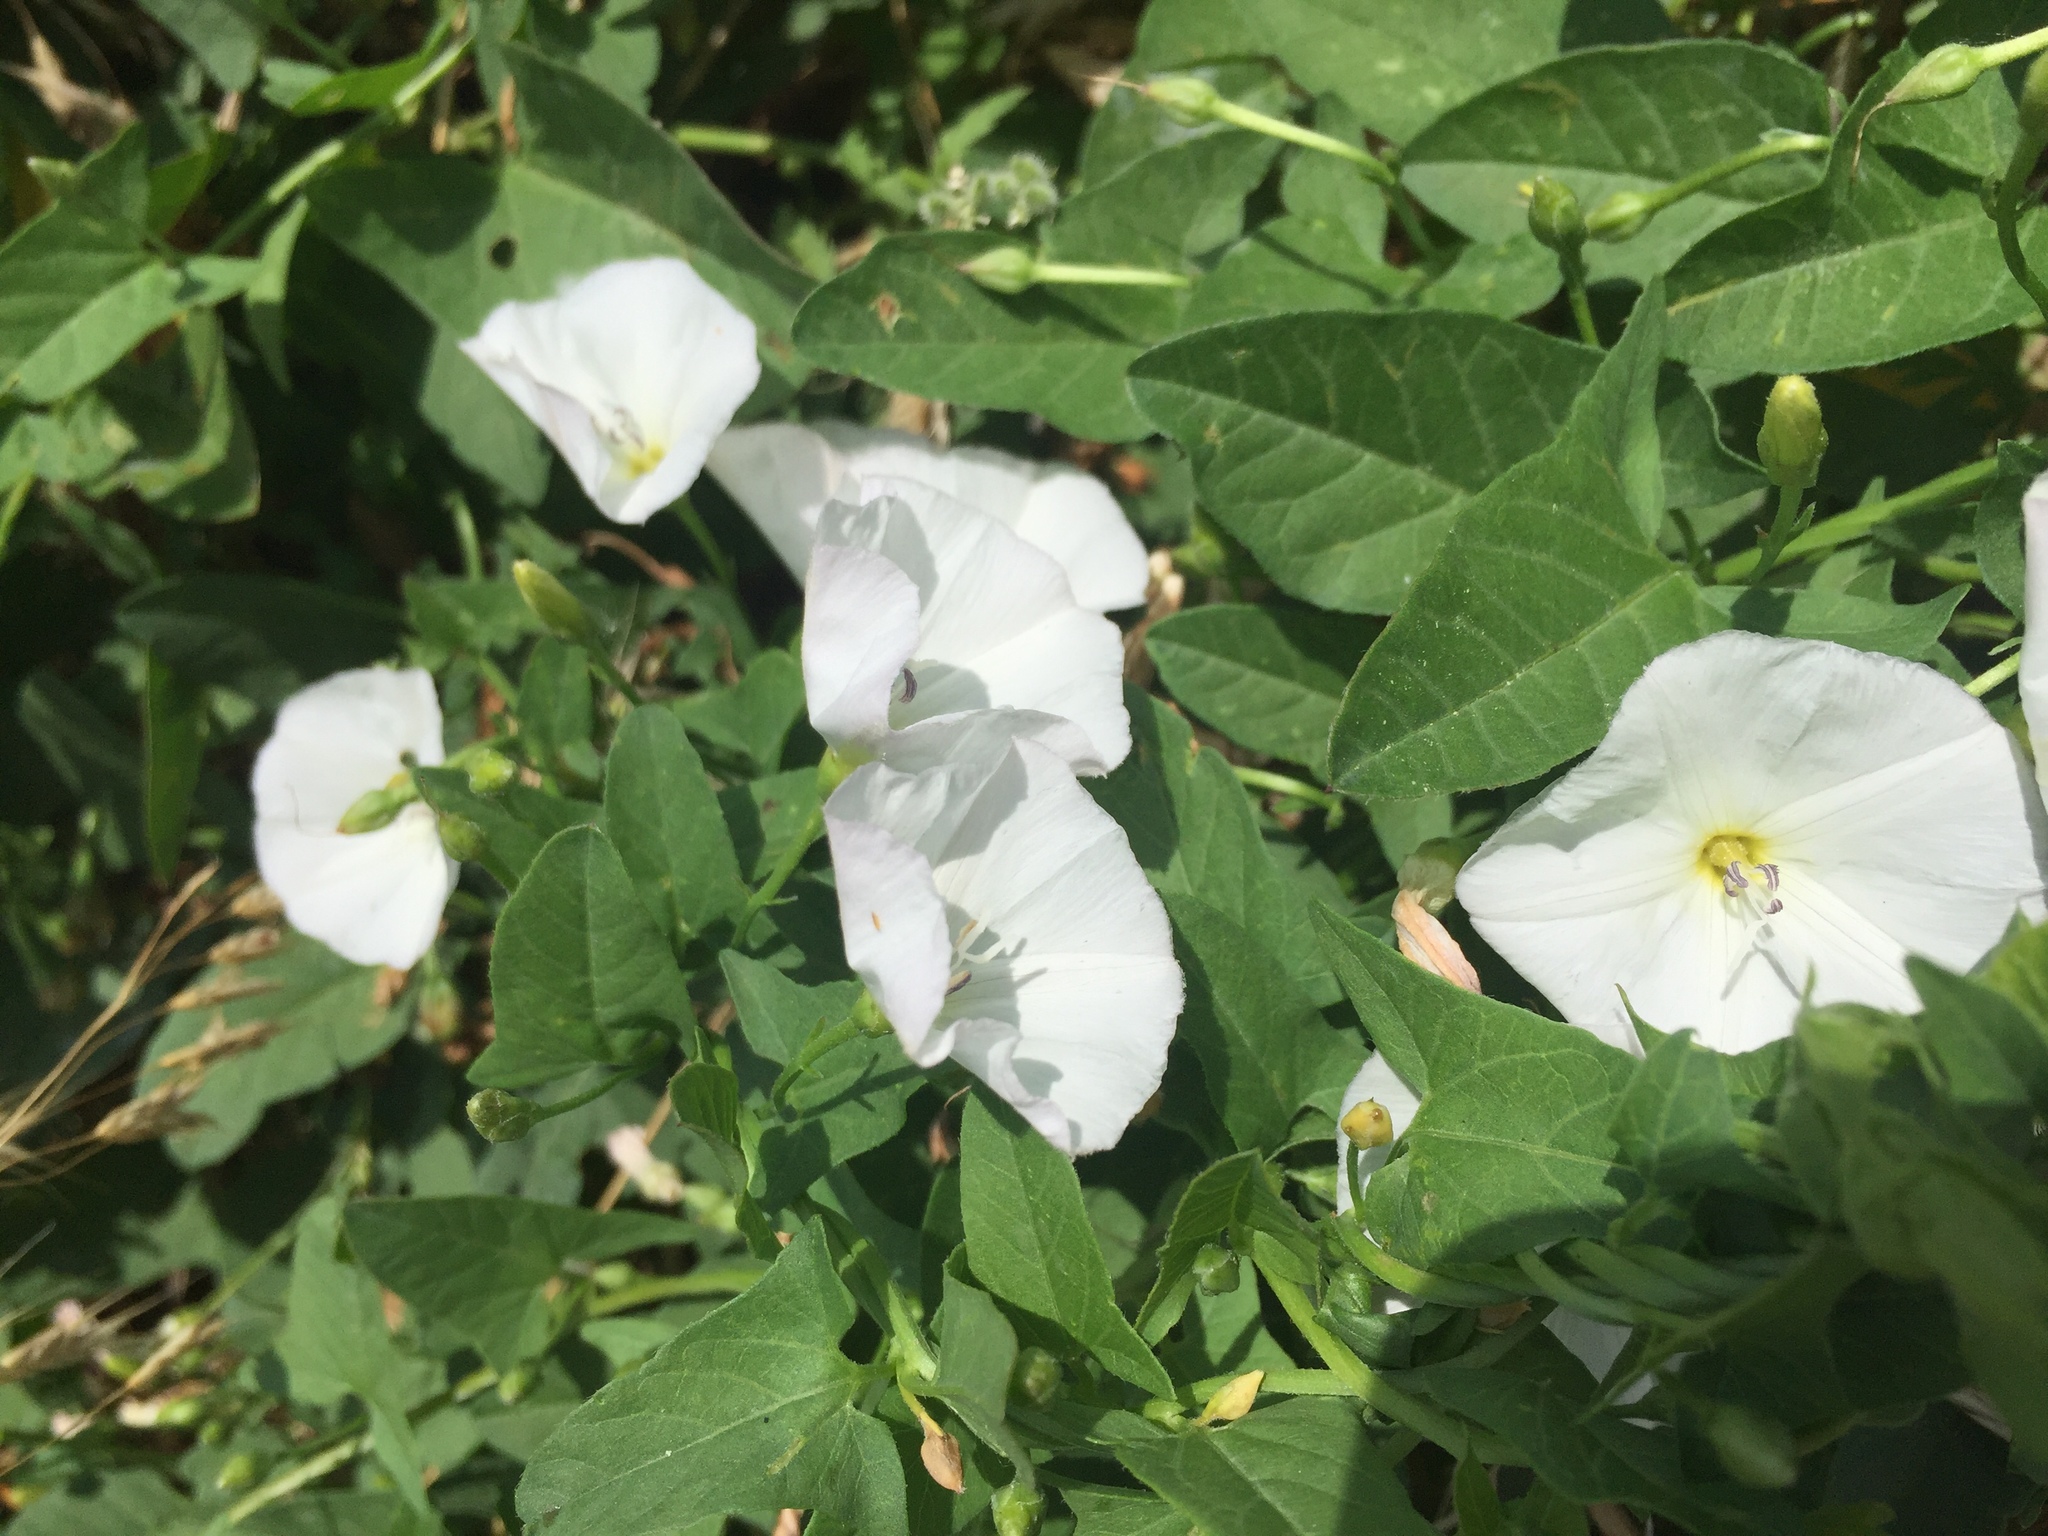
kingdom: Plantae
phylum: Tracheophyta
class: Magnoliopsida
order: Solanales
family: Convolvulaceae
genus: Convolvulus
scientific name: Convolvulus arvensis
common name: Field bindweed
